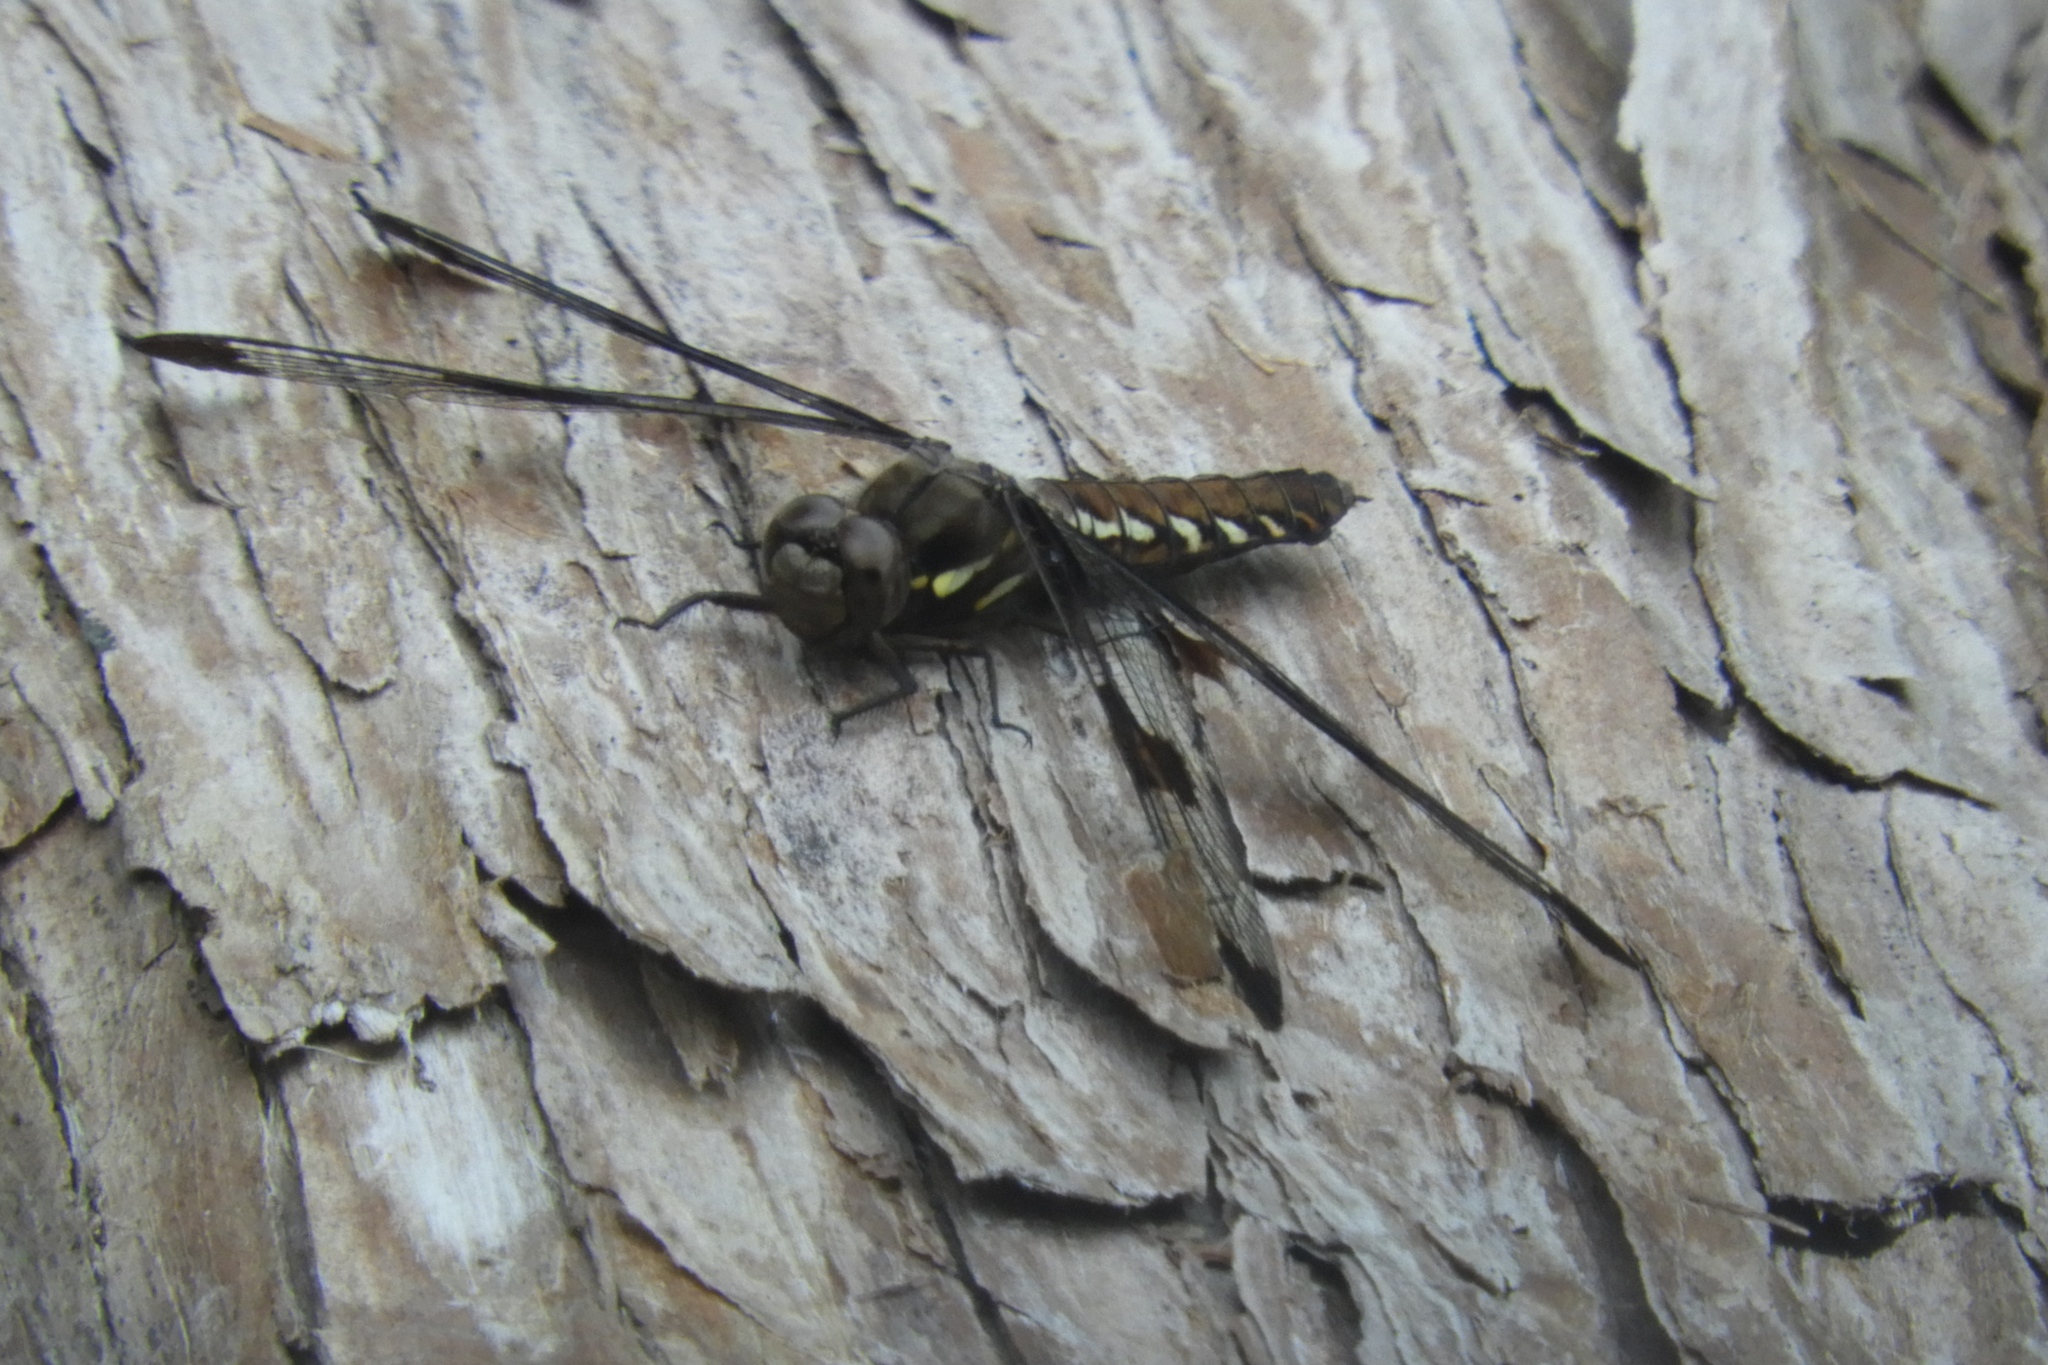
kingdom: Animalia
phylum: Arthropoda
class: Insecta
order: Odonata
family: Libellulidae
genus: Plathemis
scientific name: Plathemis lydia
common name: Common whitetail
